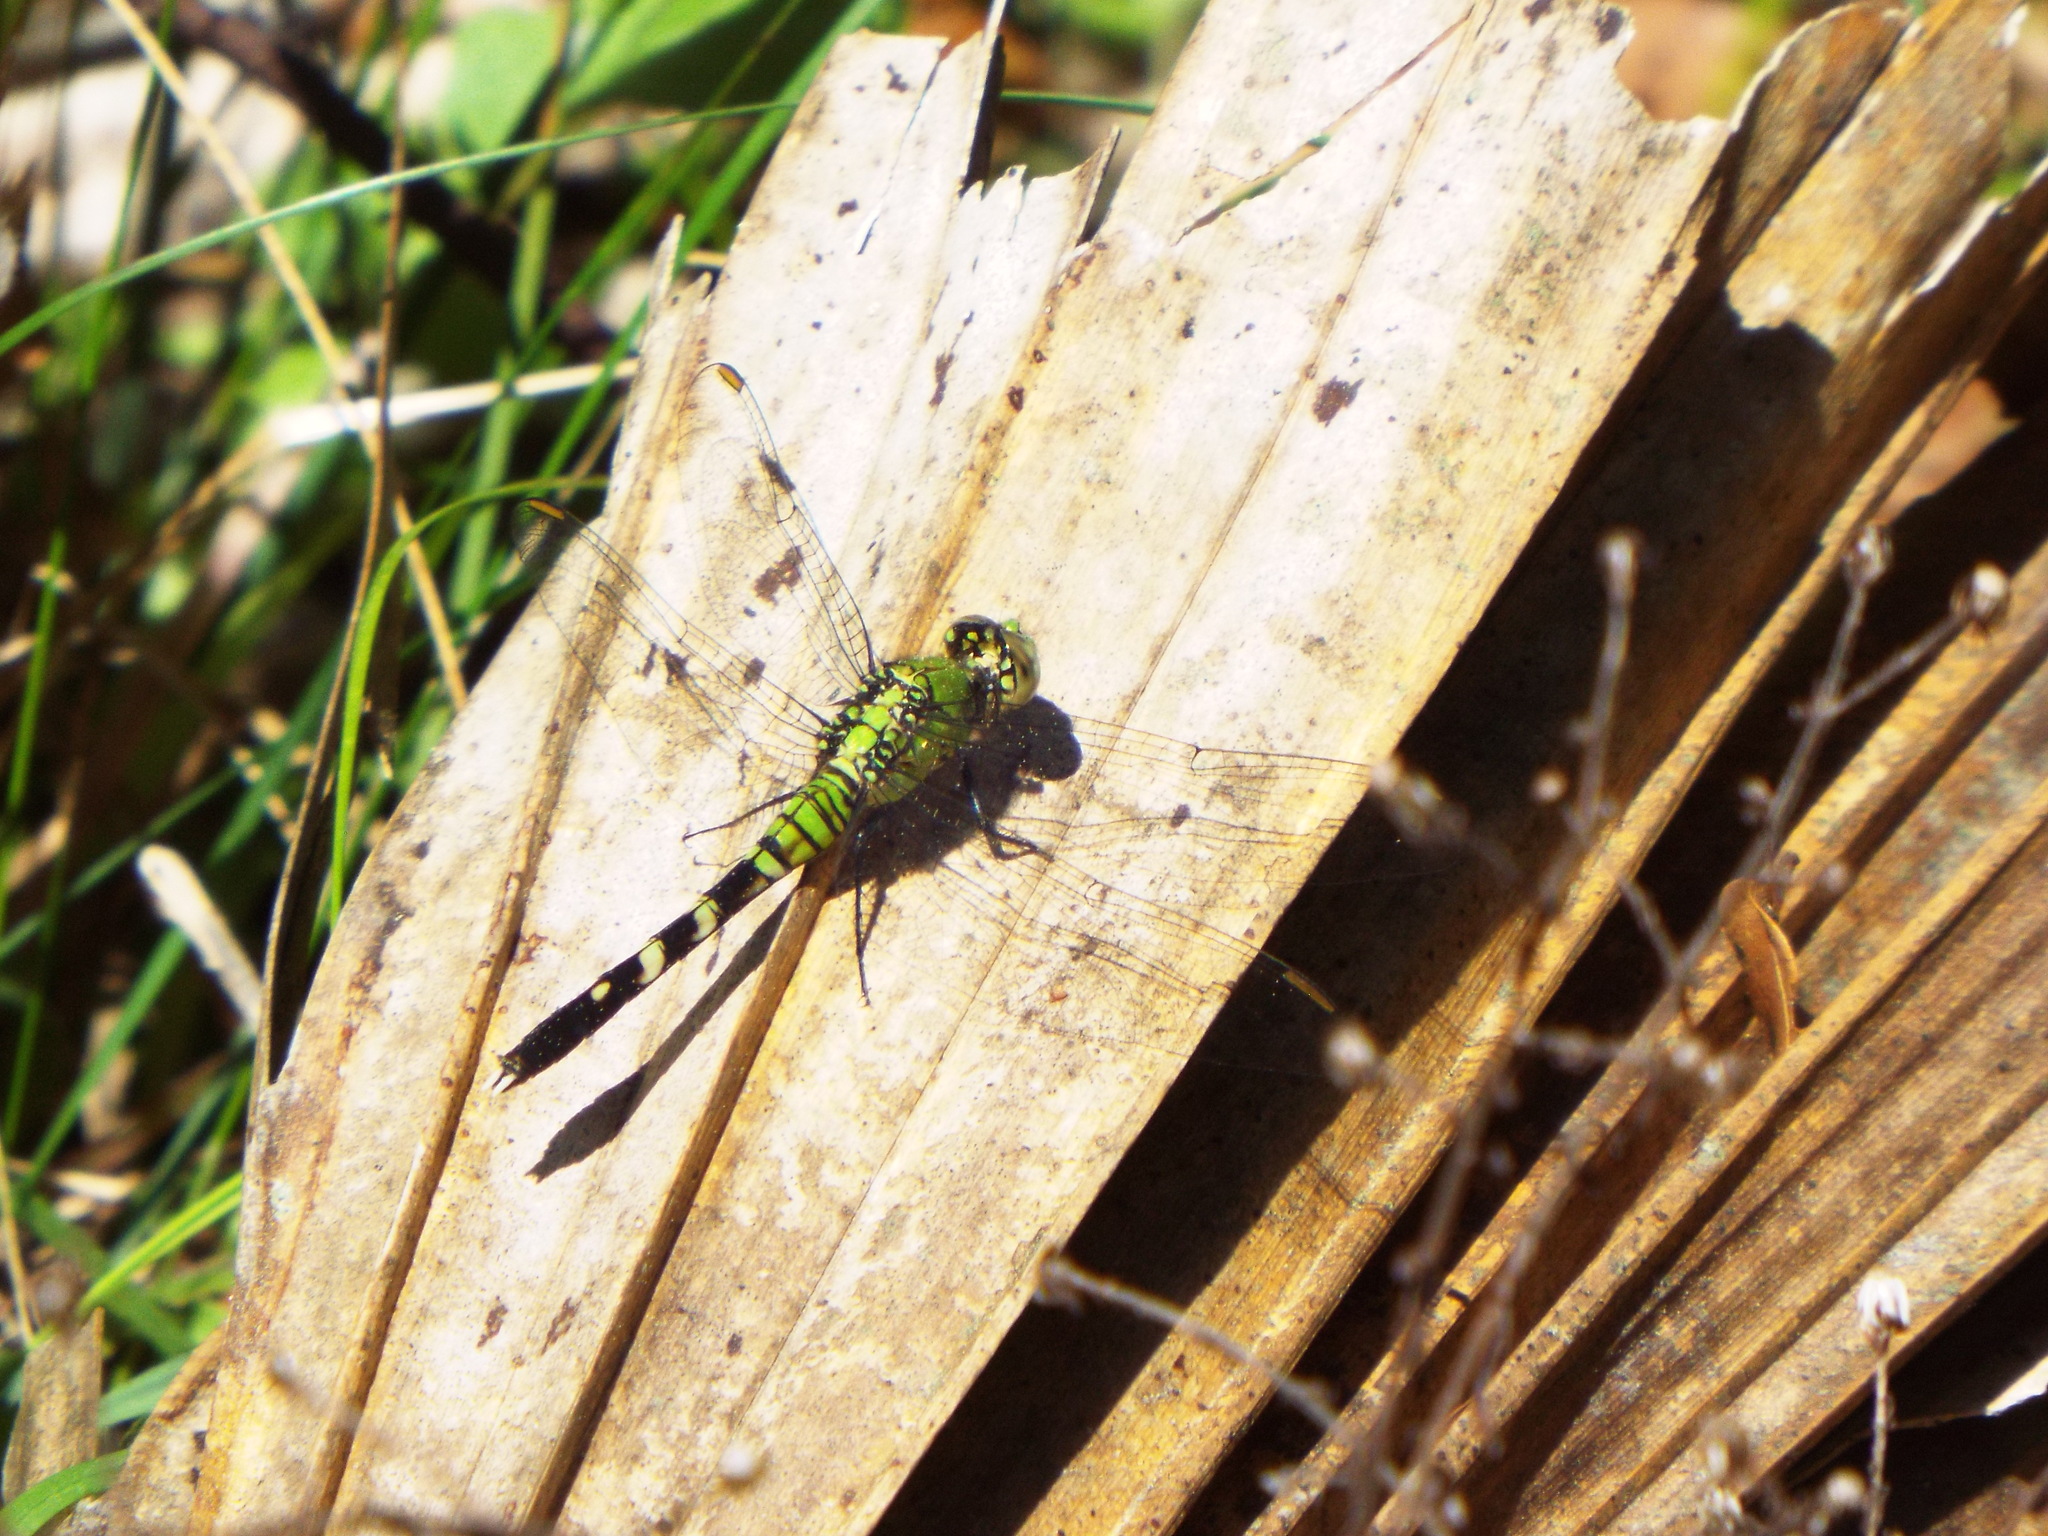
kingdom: Animalia
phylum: Arthropoda
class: Insecta
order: Odonata
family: Libellulidae
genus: Erythemis
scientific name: Erythemis simplicicollis
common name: Eastern pondhawk
